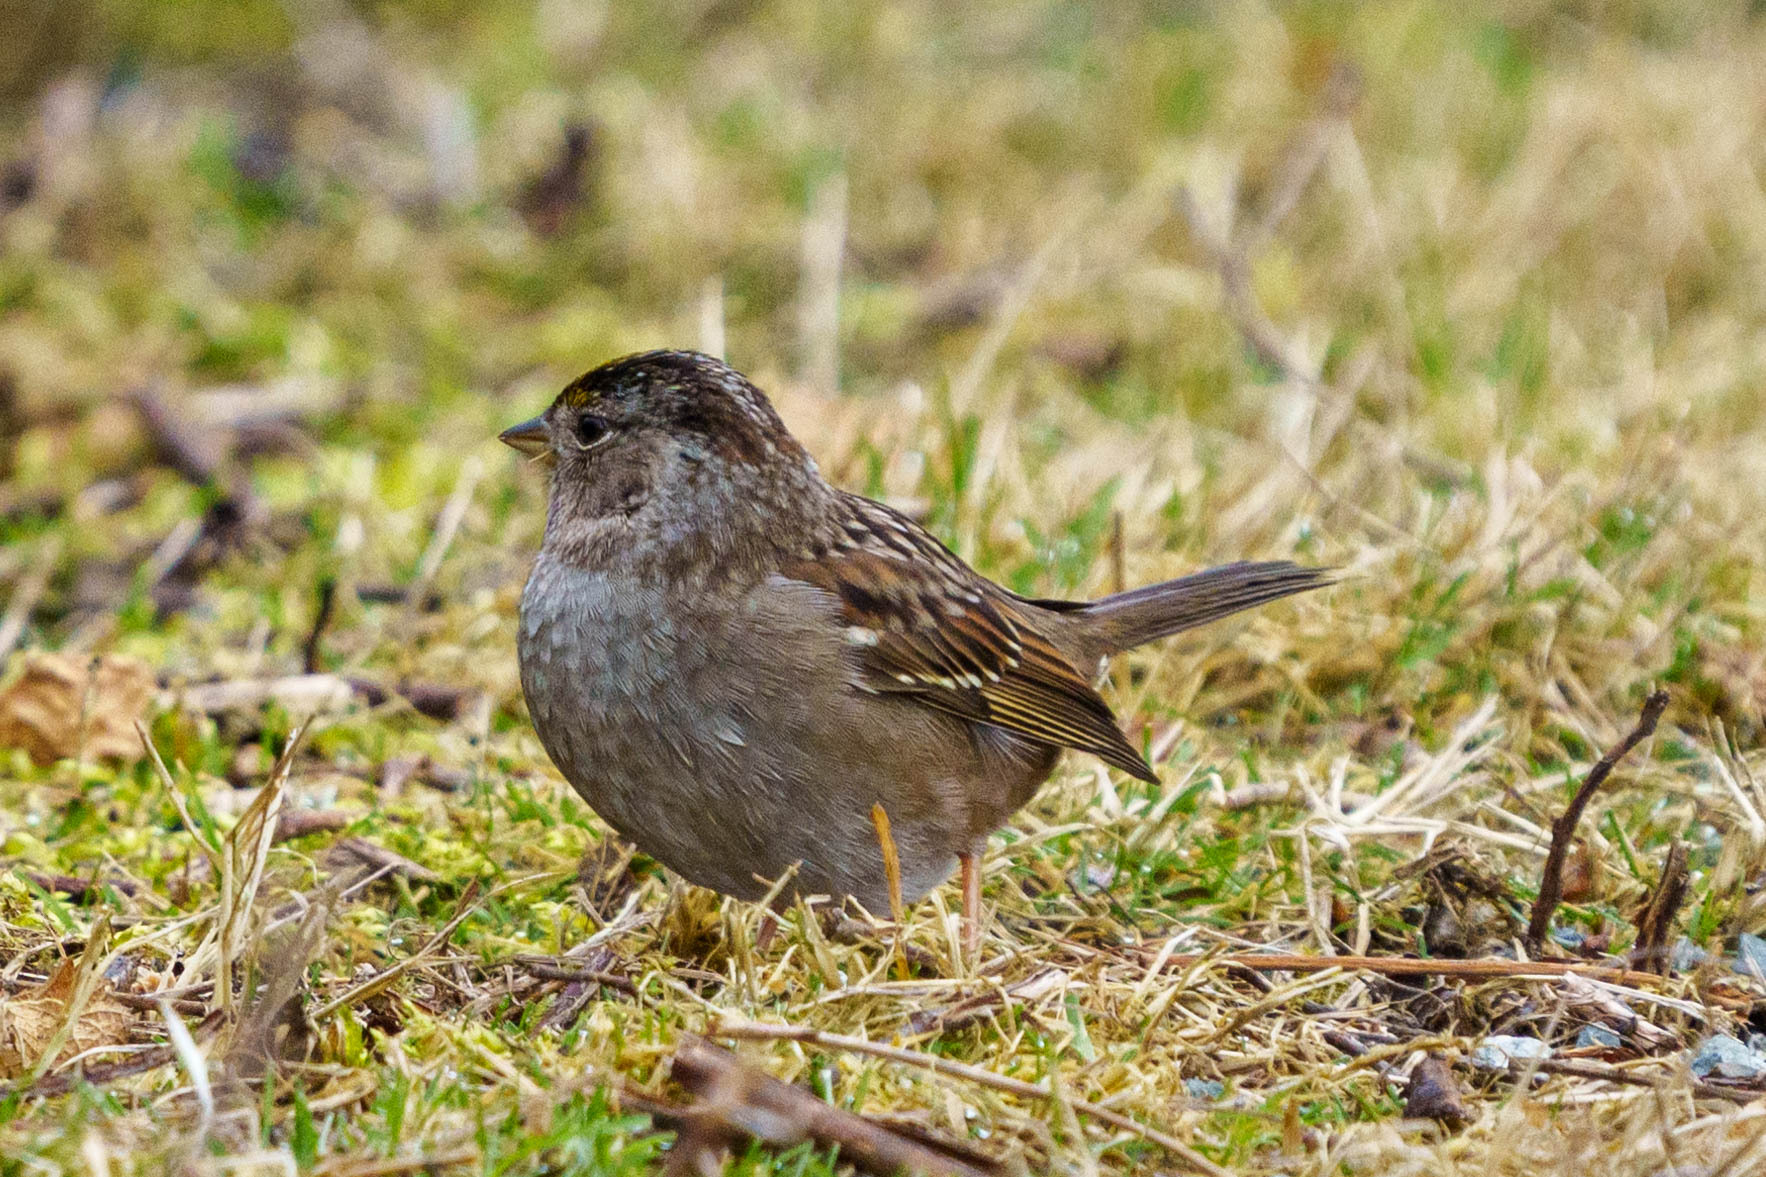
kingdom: Animalia
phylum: Chordata
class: Aves
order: Passeriformes
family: Passerellidae
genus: Zonotrichia
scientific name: Zonotrichia atricapilla
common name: Golden-crowned sparrow
